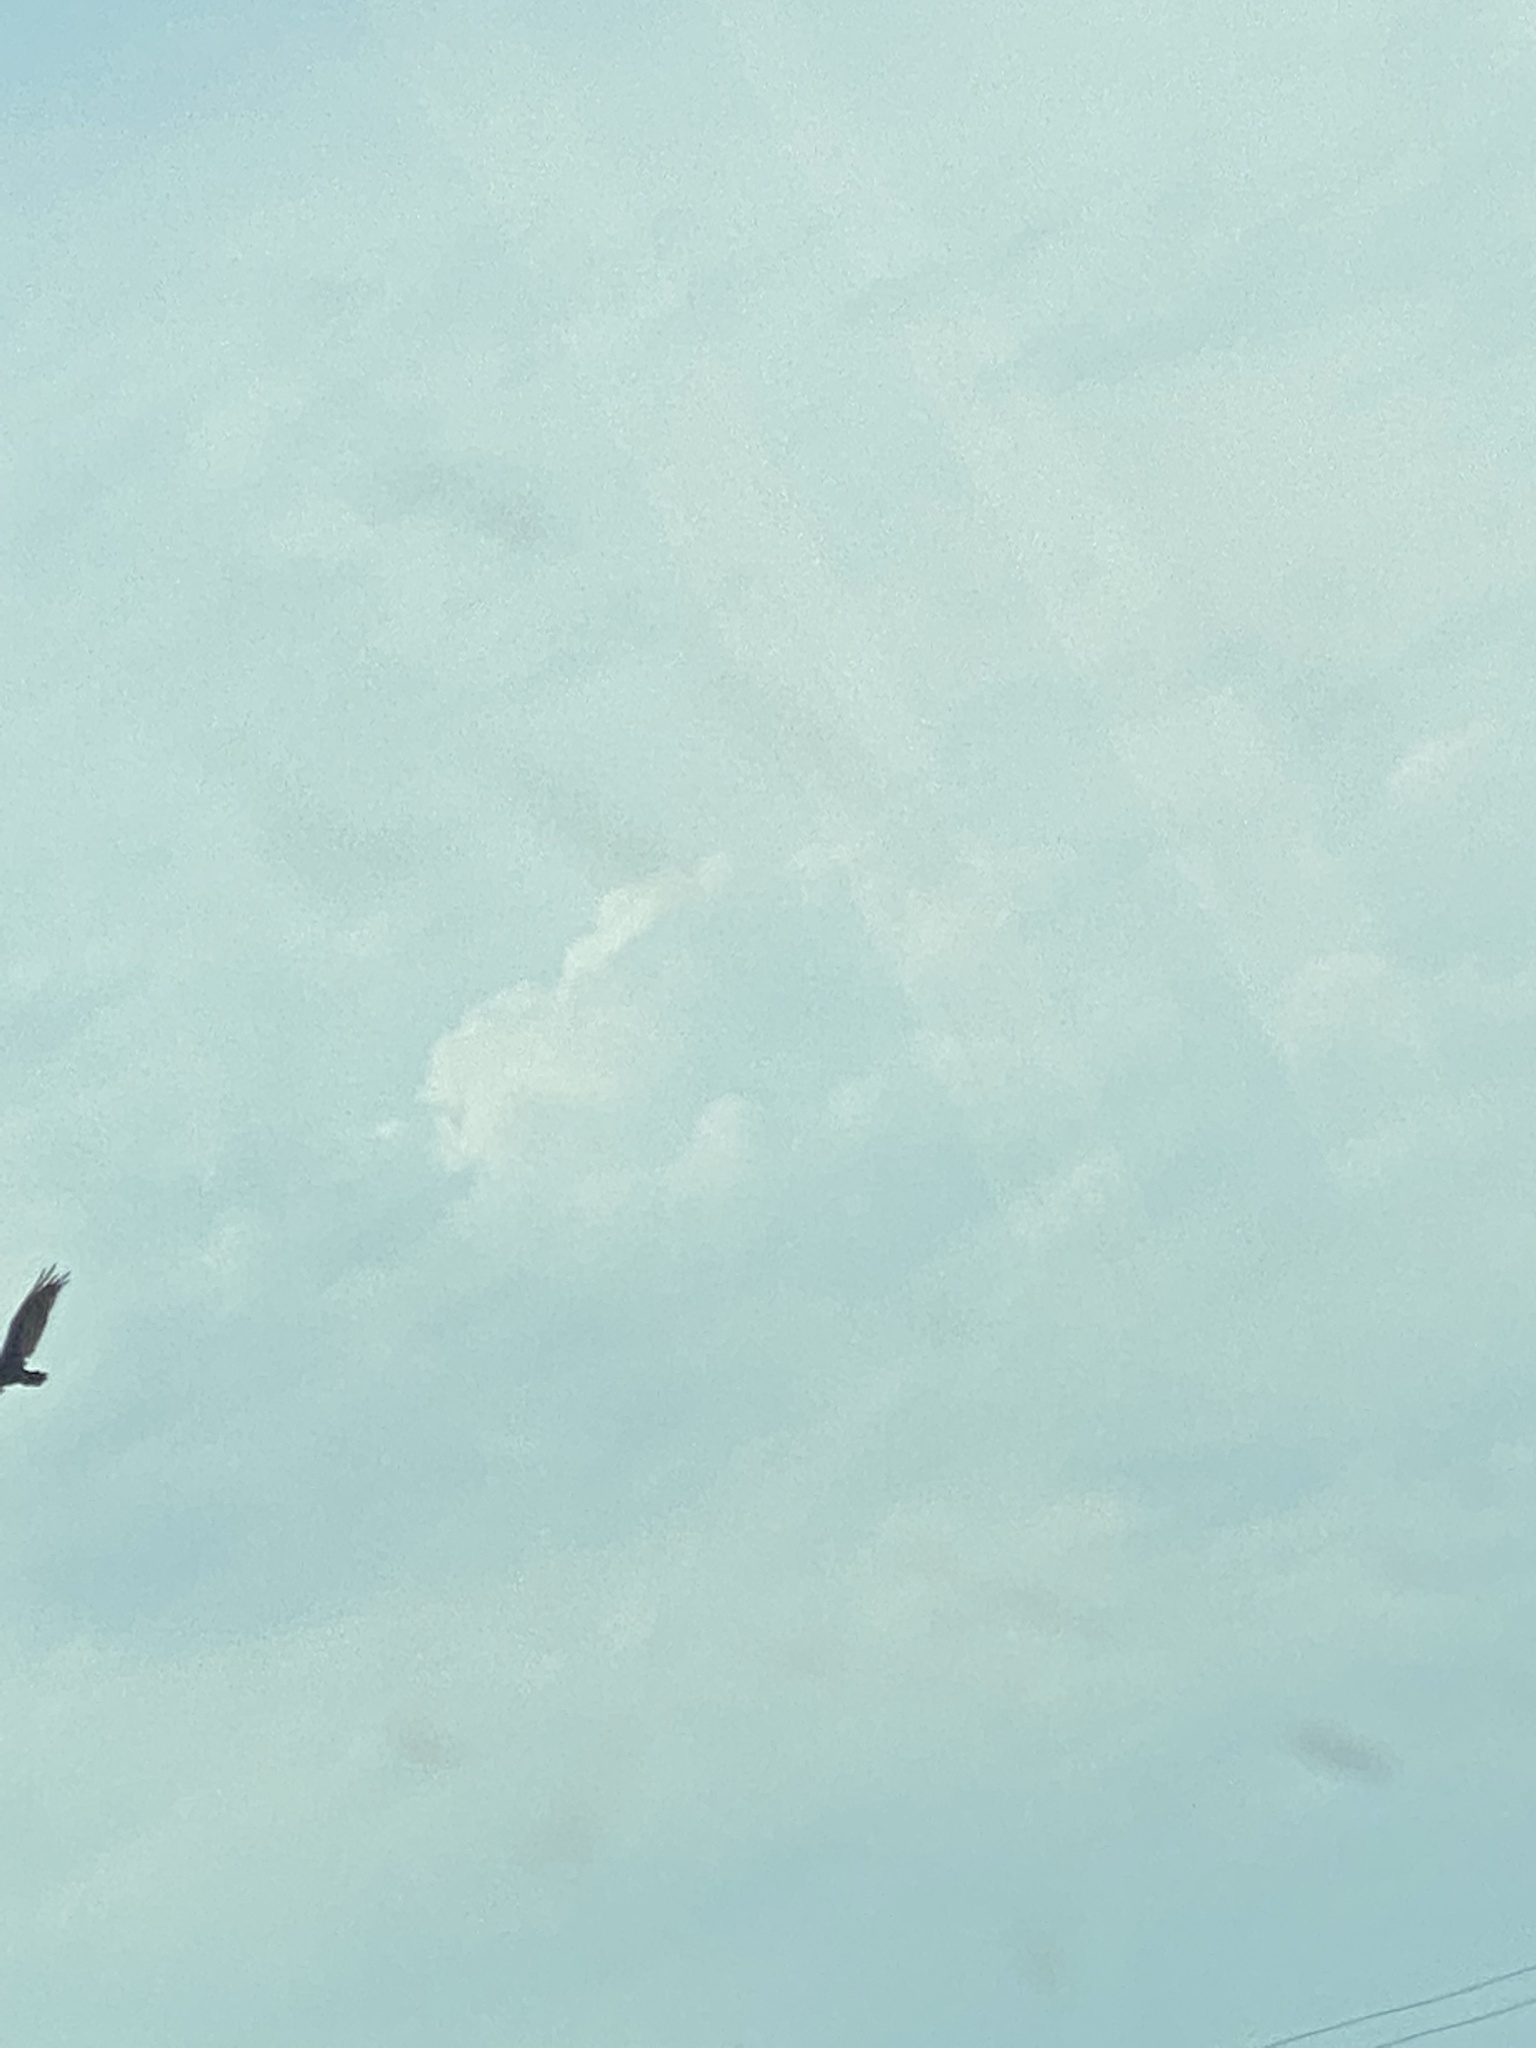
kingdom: Animalia
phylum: Chordata
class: Aves
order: Accipitriformes
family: Cathartidae
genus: Cathartes
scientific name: Cathartes aura
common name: Turkey vulture
